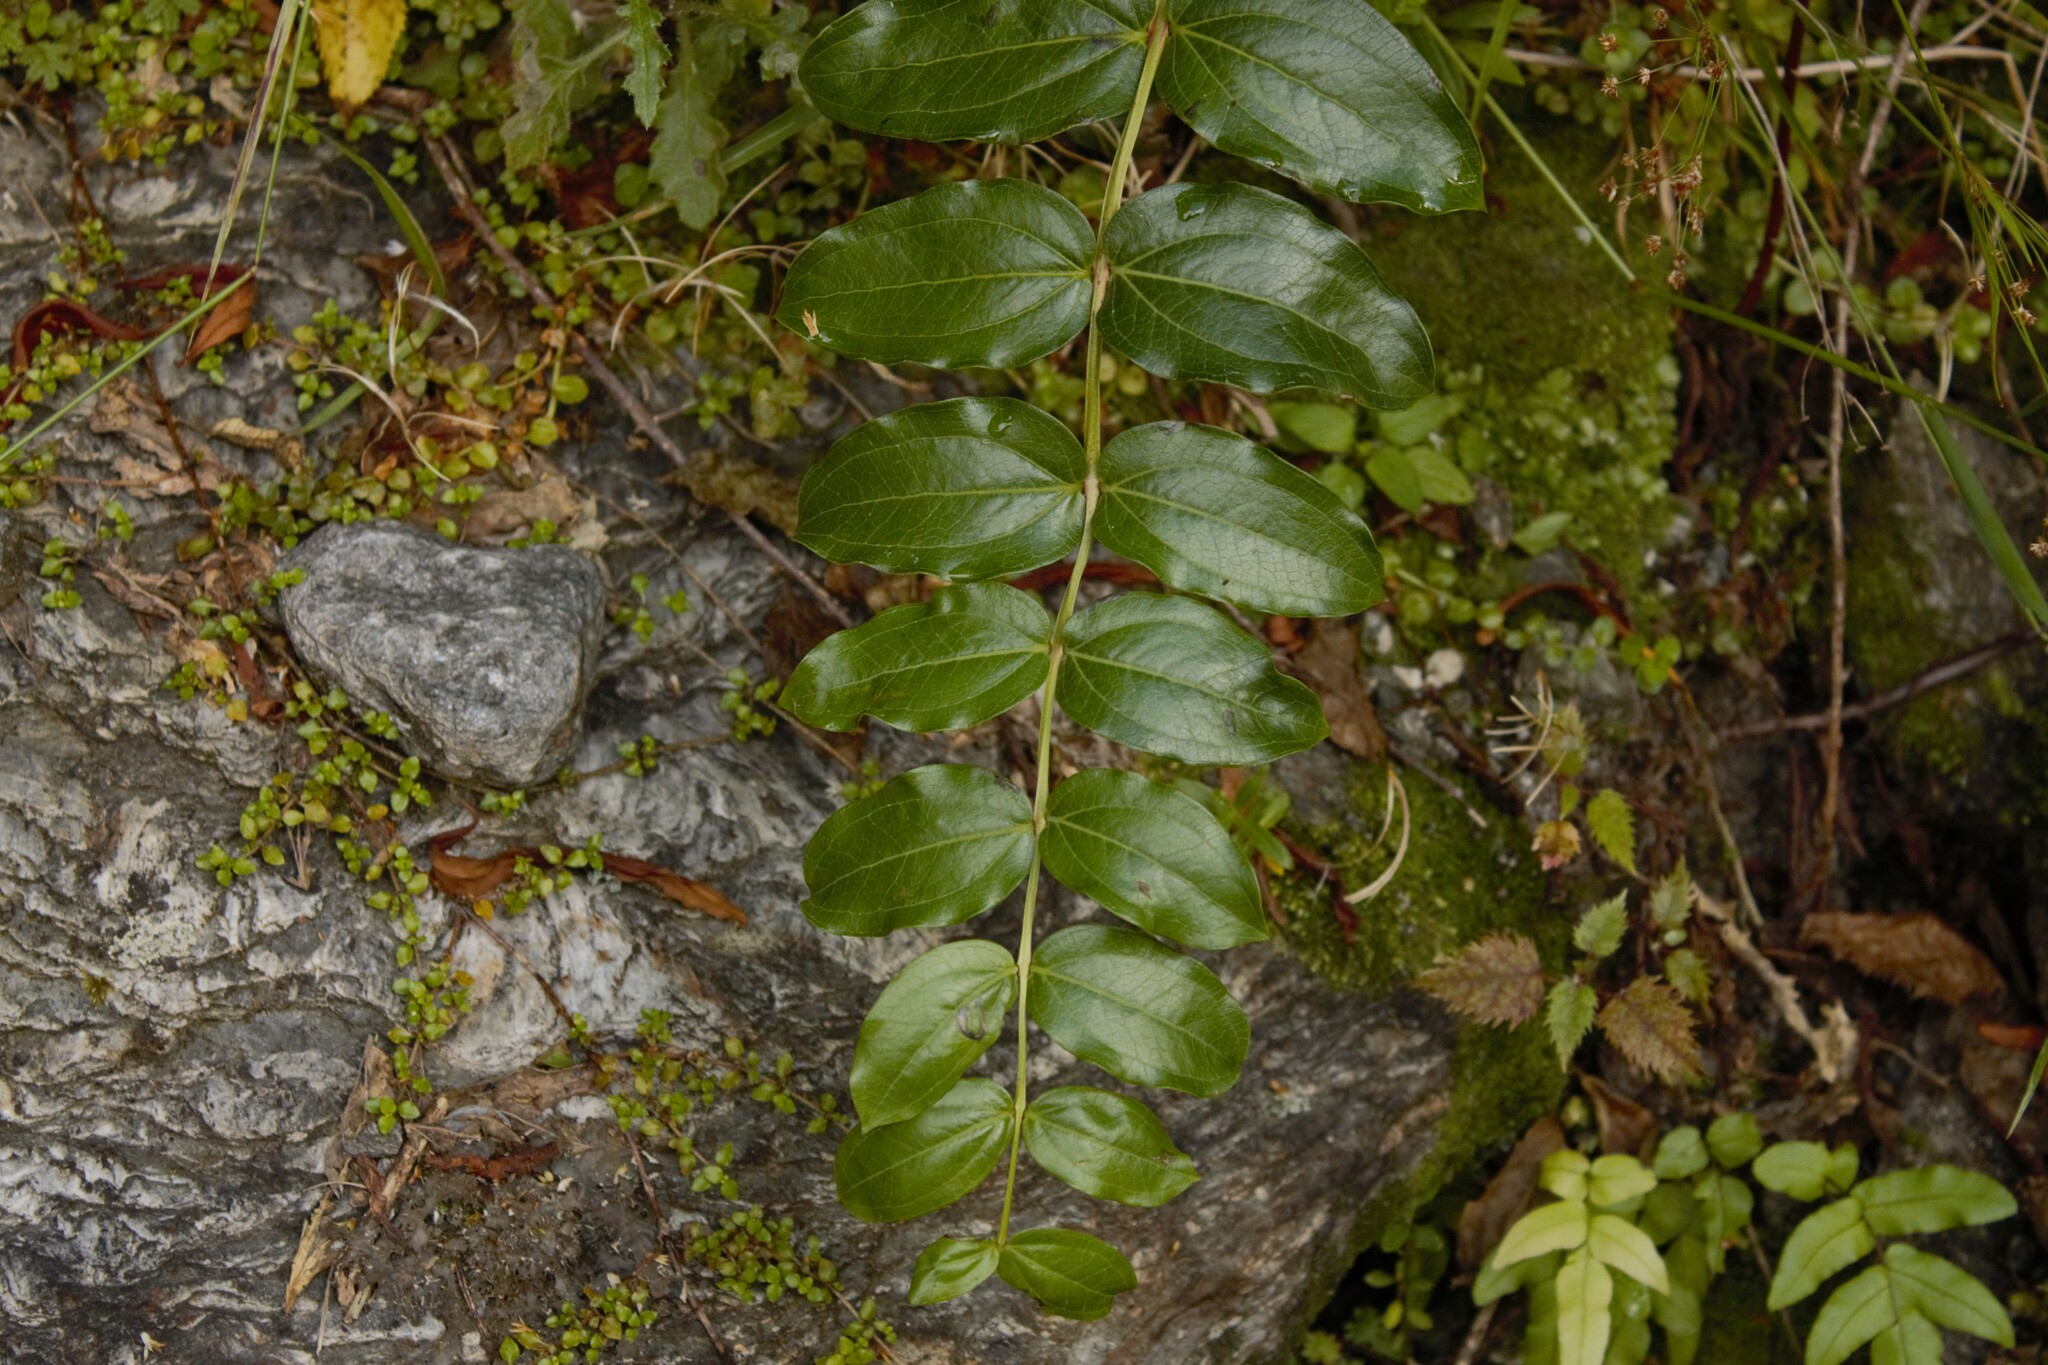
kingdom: Plantae
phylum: Tracheophyta
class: Magnoliopsida
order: Cucurbitales
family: Coriariaceae
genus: Coriaria
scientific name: Coriaria arborea
